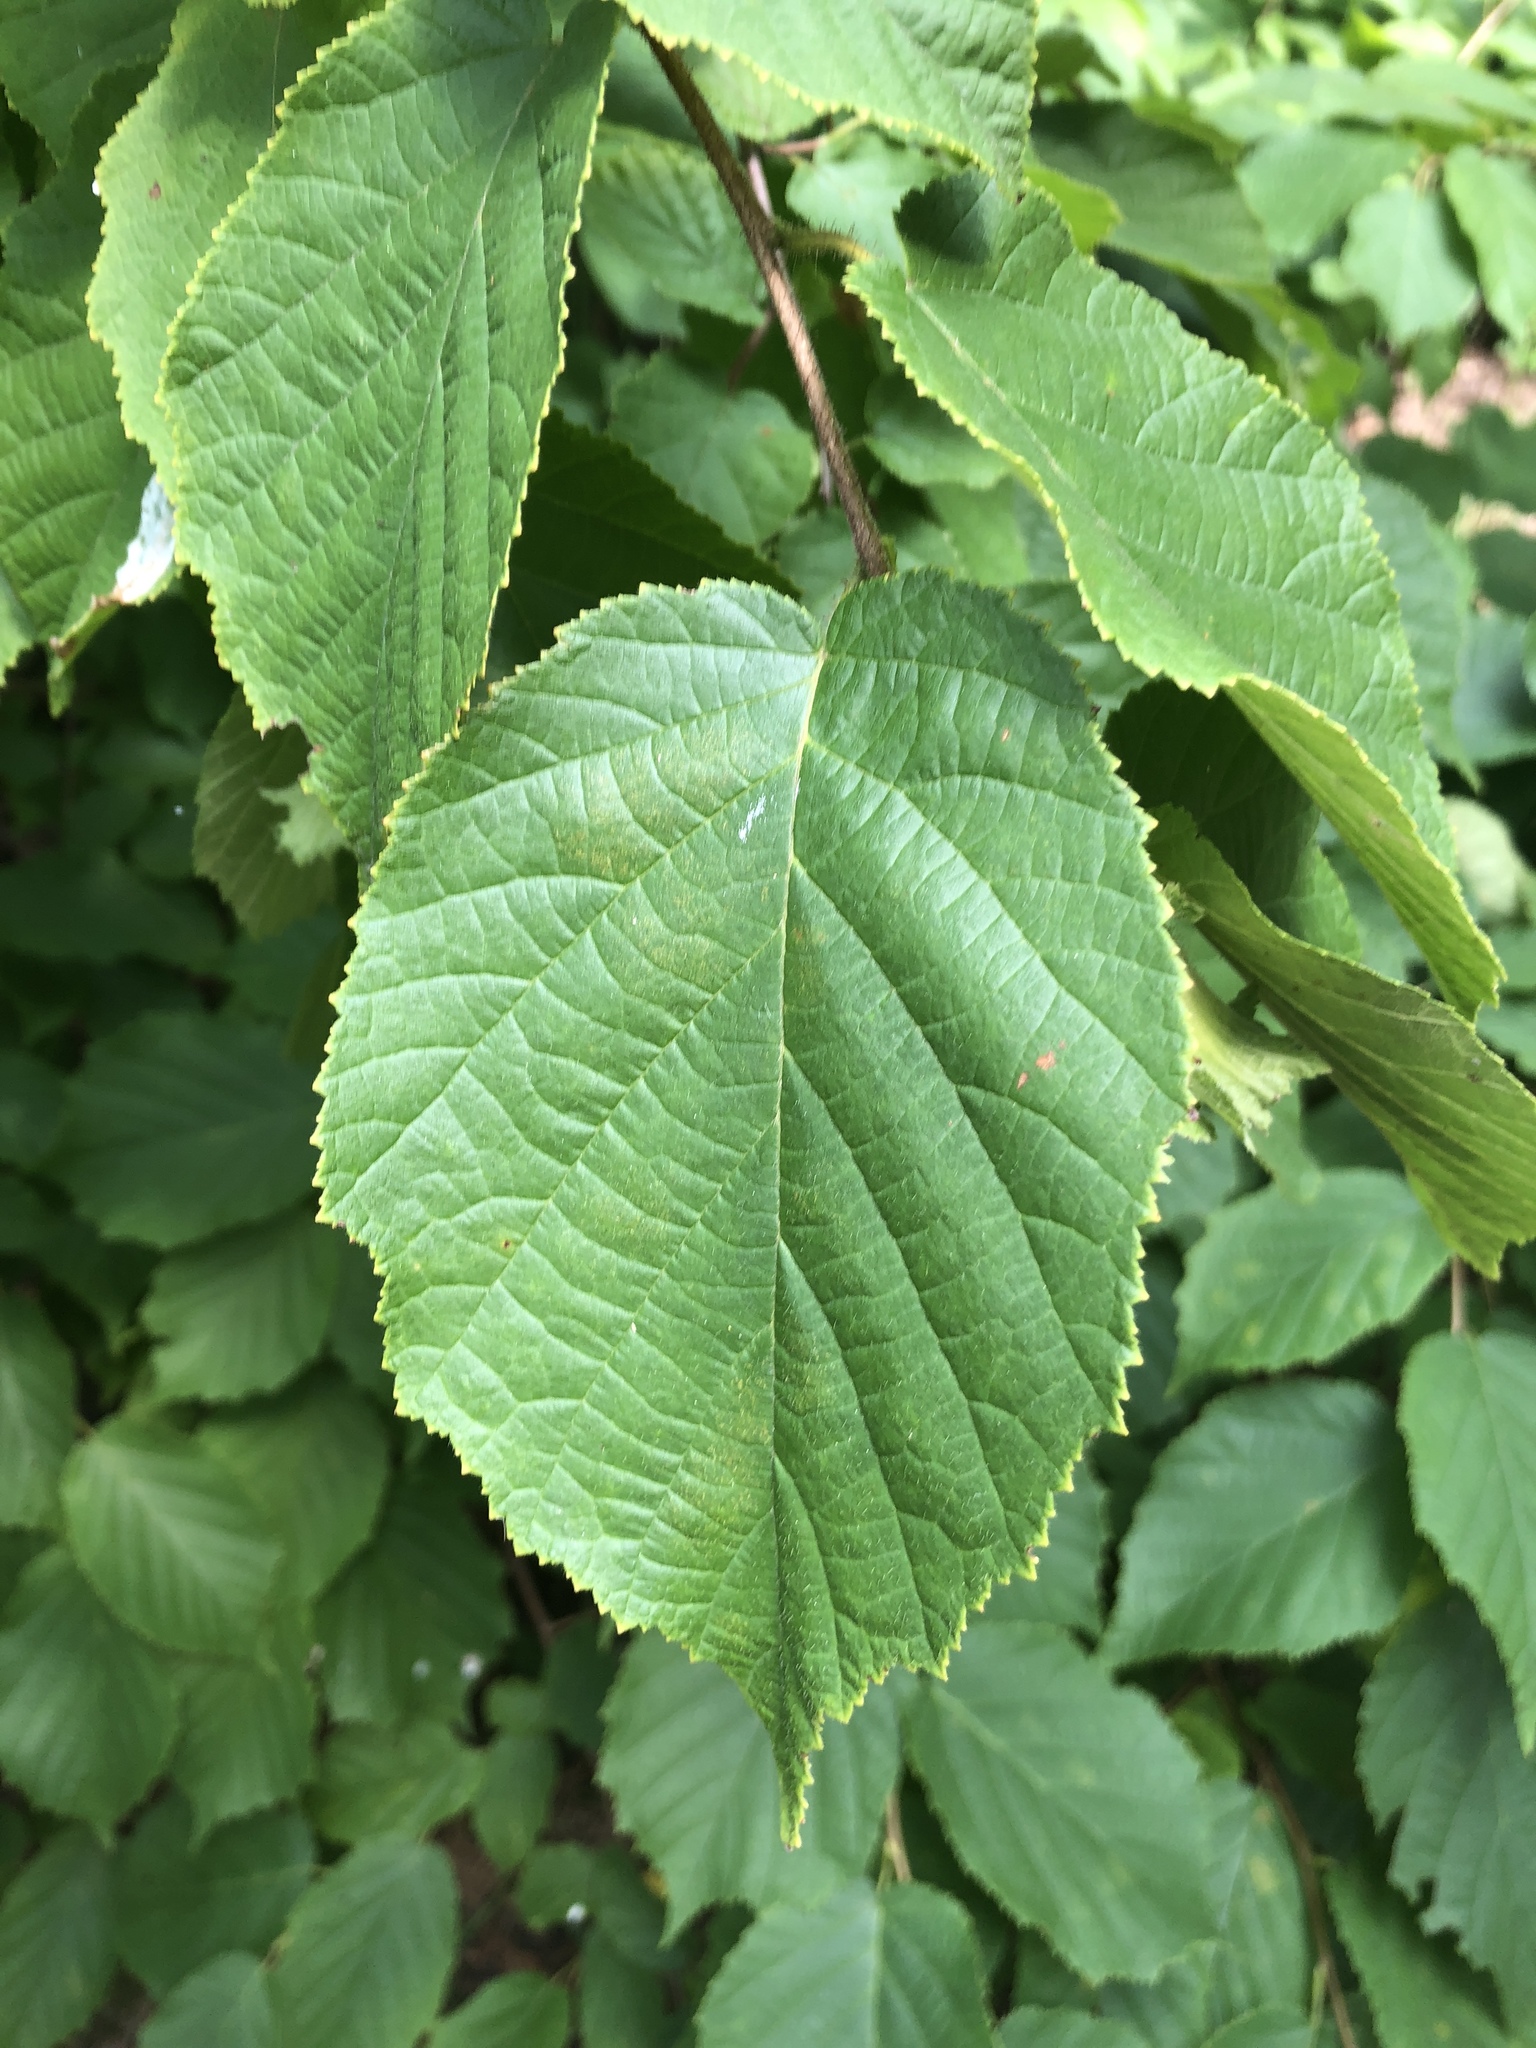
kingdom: Plantae
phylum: Tracheophyta
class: Magnoliopsida
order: Fagales
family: Betulaceae
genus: Corylus
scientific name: Corylus americana
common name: American hazel
